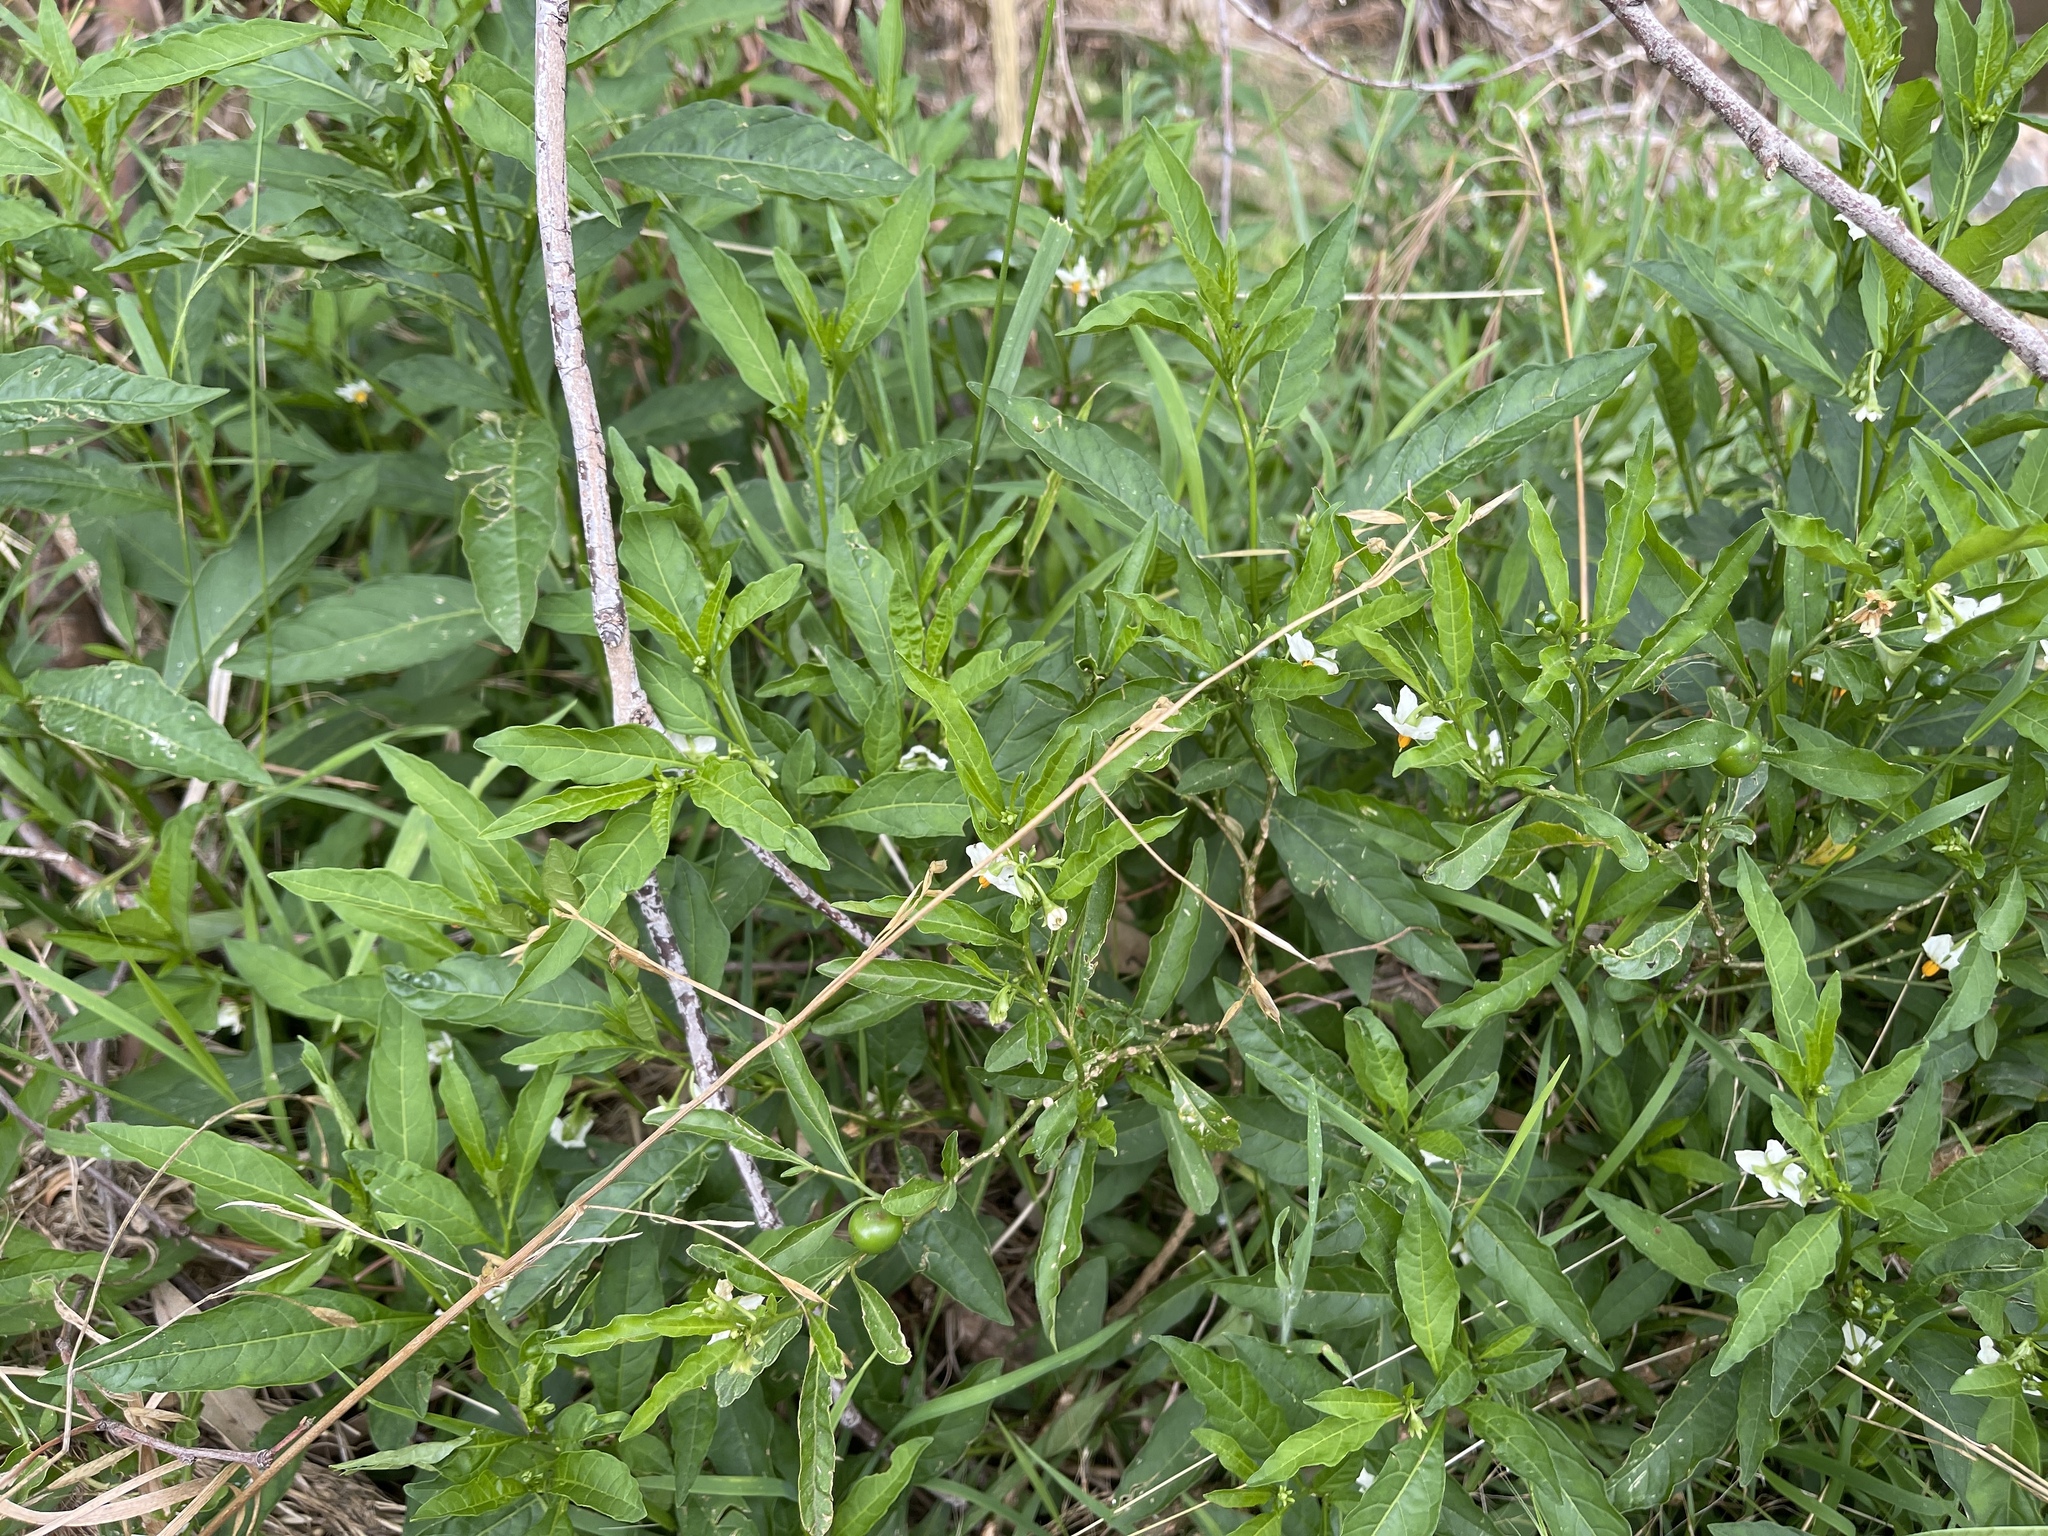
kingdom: Plantae
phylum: Tracheophyta
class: Magnoliopsida
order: Solanales
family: Solanaceae
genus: Solanum
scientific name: Solanum pseudocapsicum
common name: Jerusalem cherry
